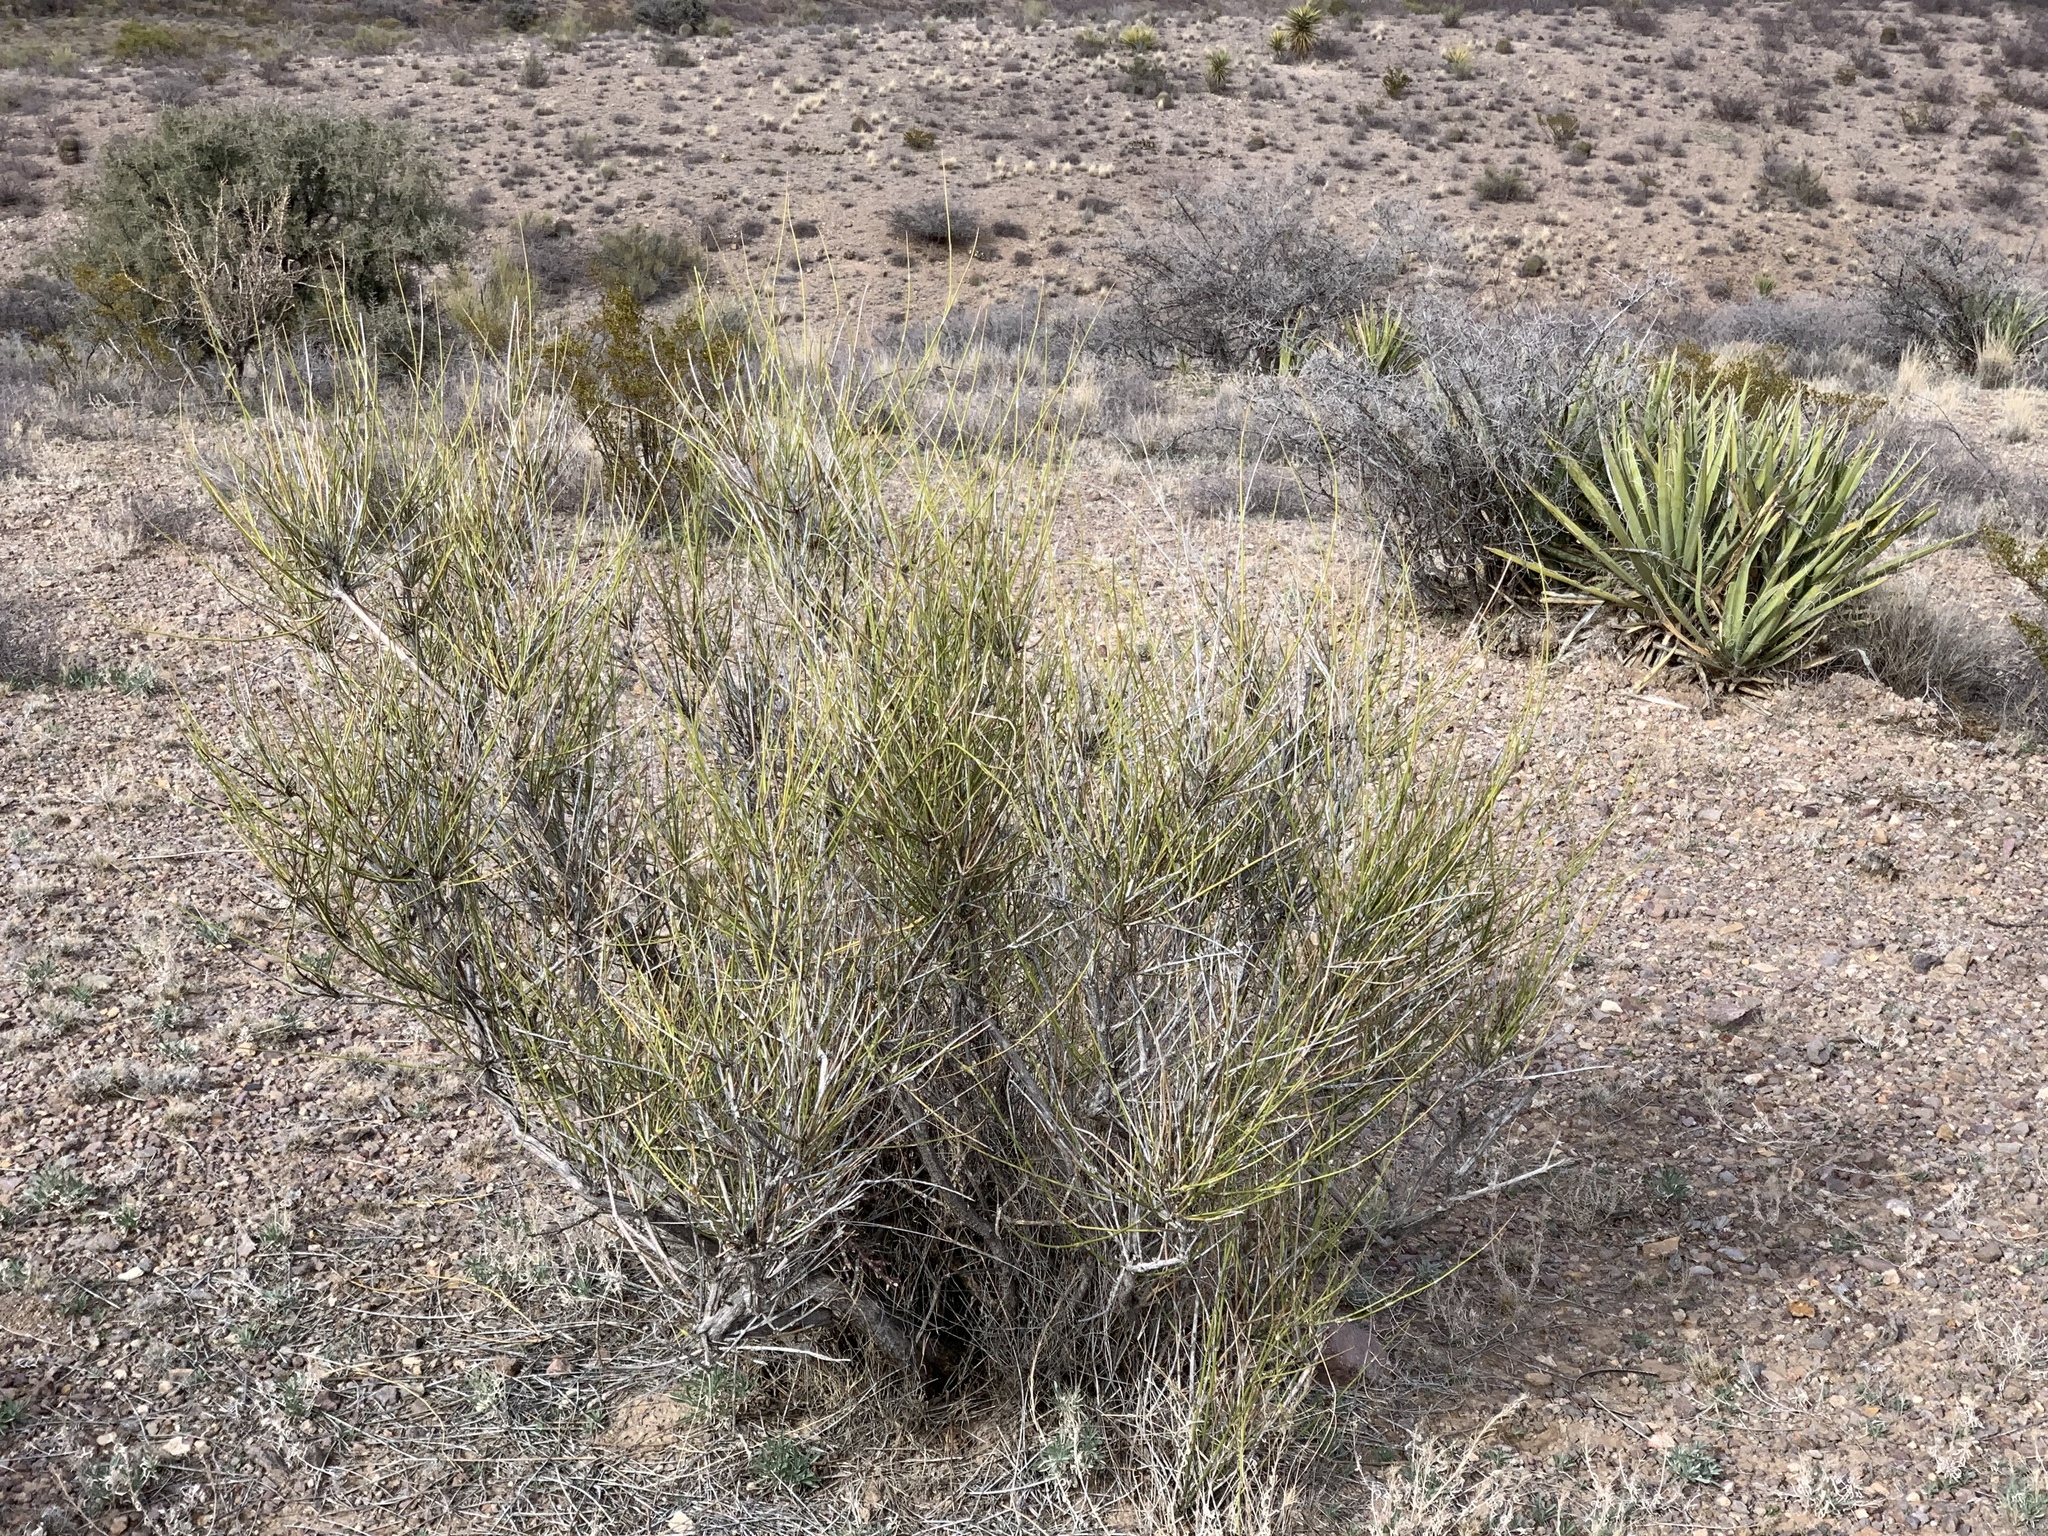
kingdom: Plantae
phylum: Tracheophyta
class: Gnetopsida
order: Ephedrales
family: Ephedraceae
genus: Ephedra
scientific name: Ephedra trifurca
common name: Mexican-tea
